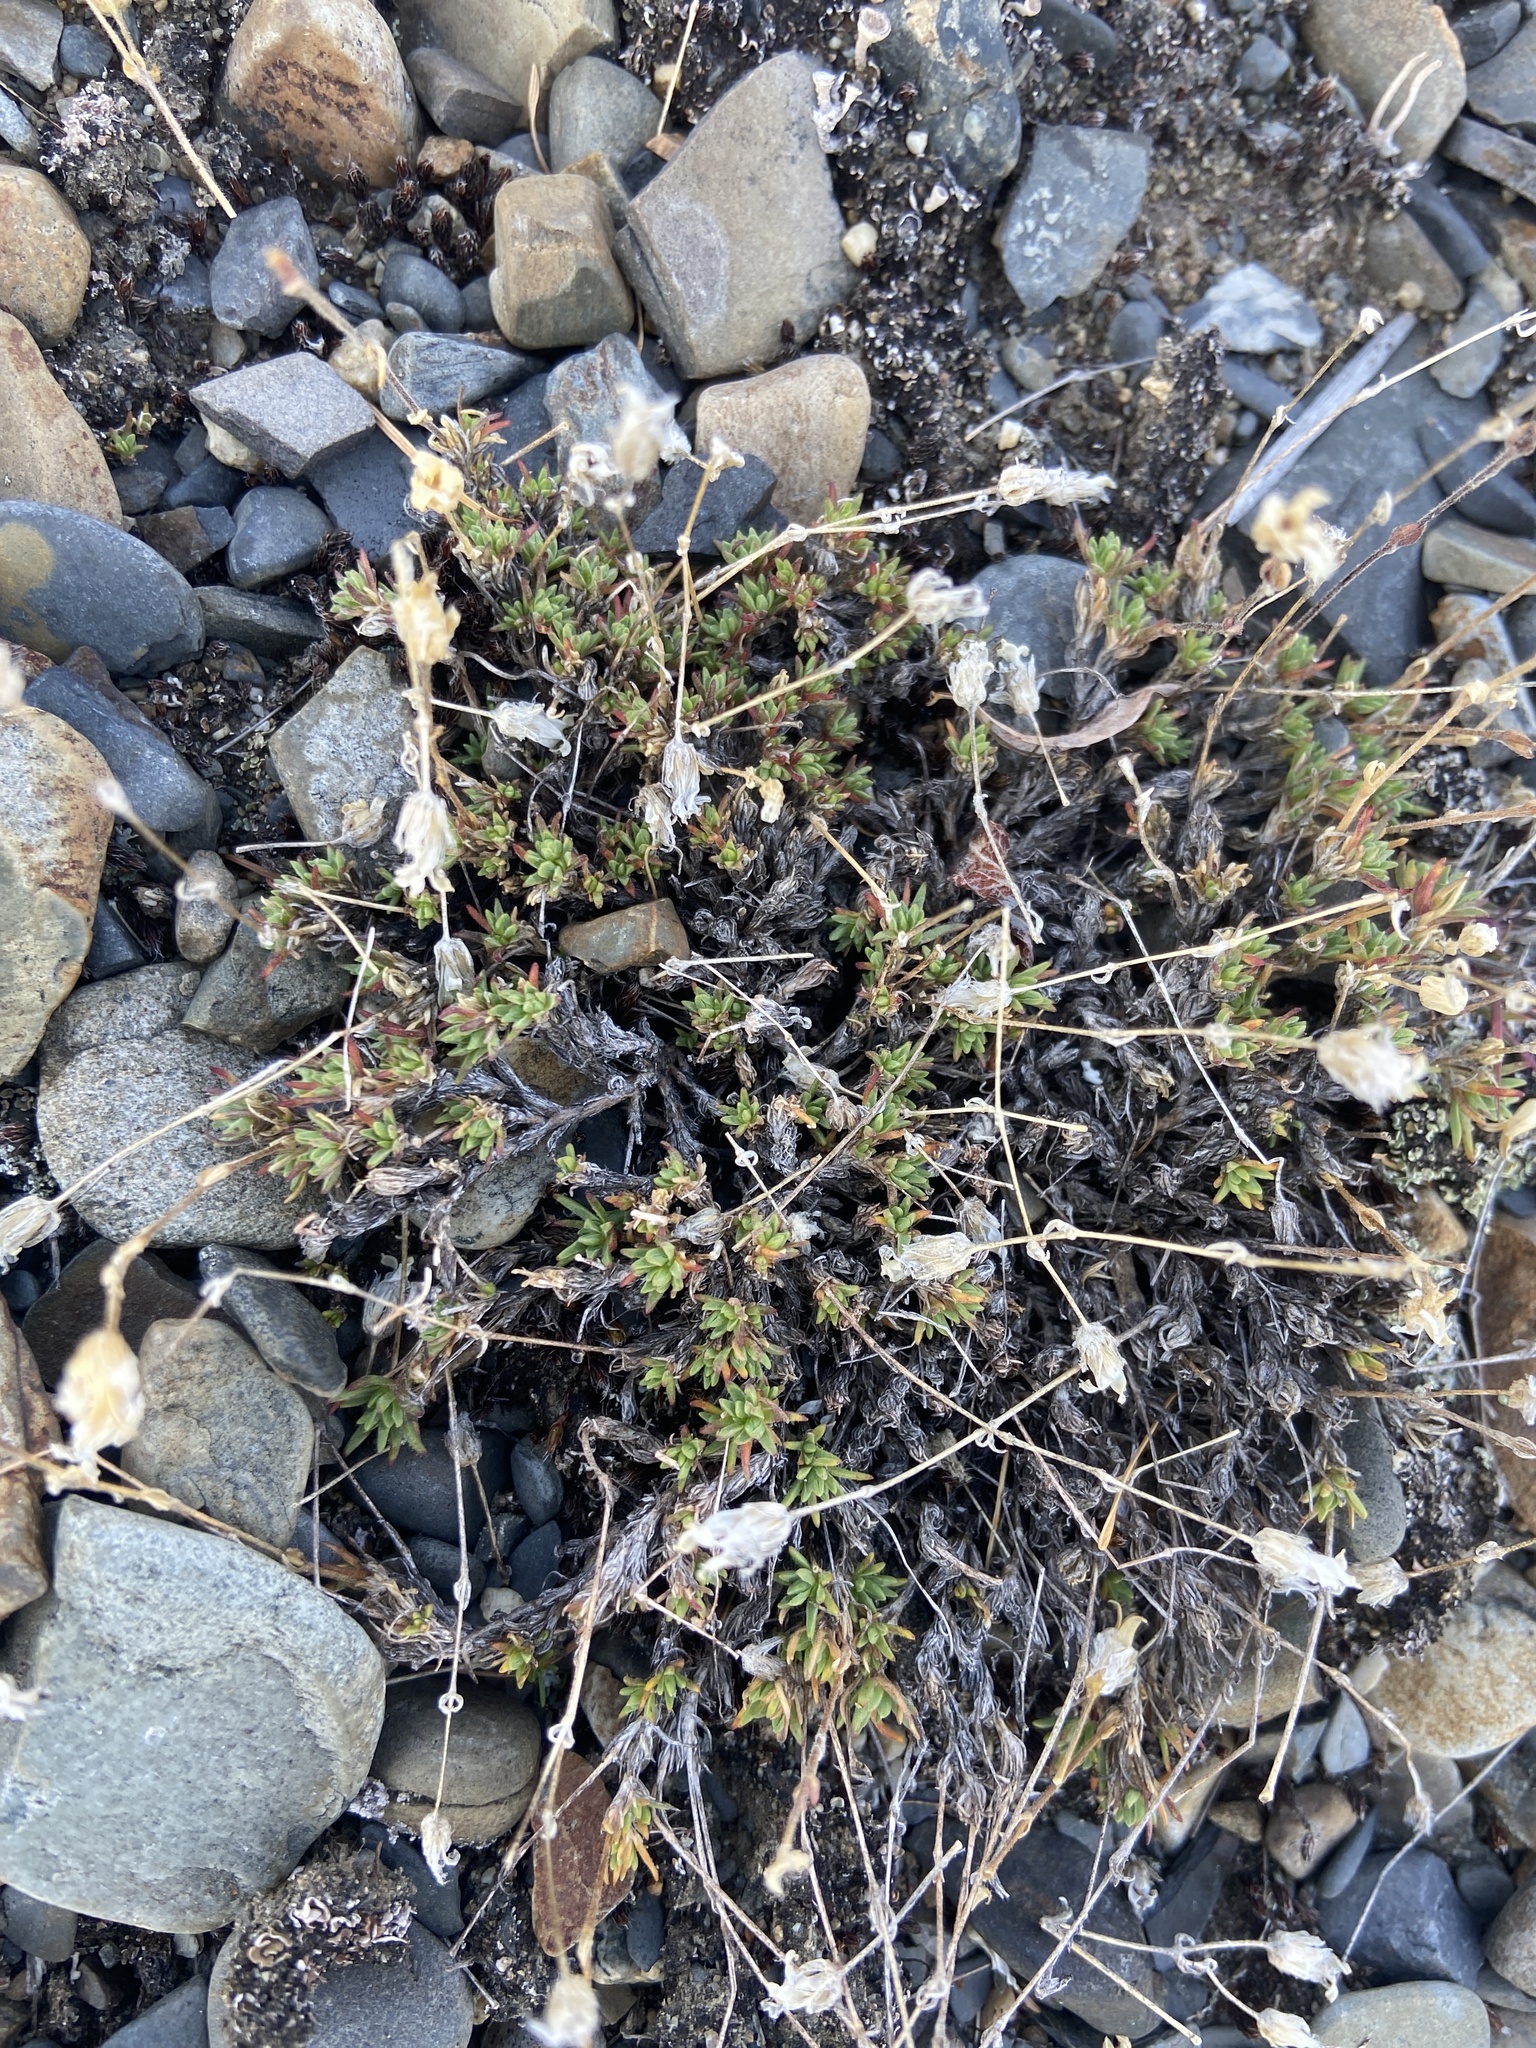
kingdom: Plantae
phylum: Tracheophyta
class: Magnoliopsida
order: Caryophyllales
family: Caryophyllaceae
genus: Cherleria
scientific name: Cherleria arctica
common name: Arctic sandwort
